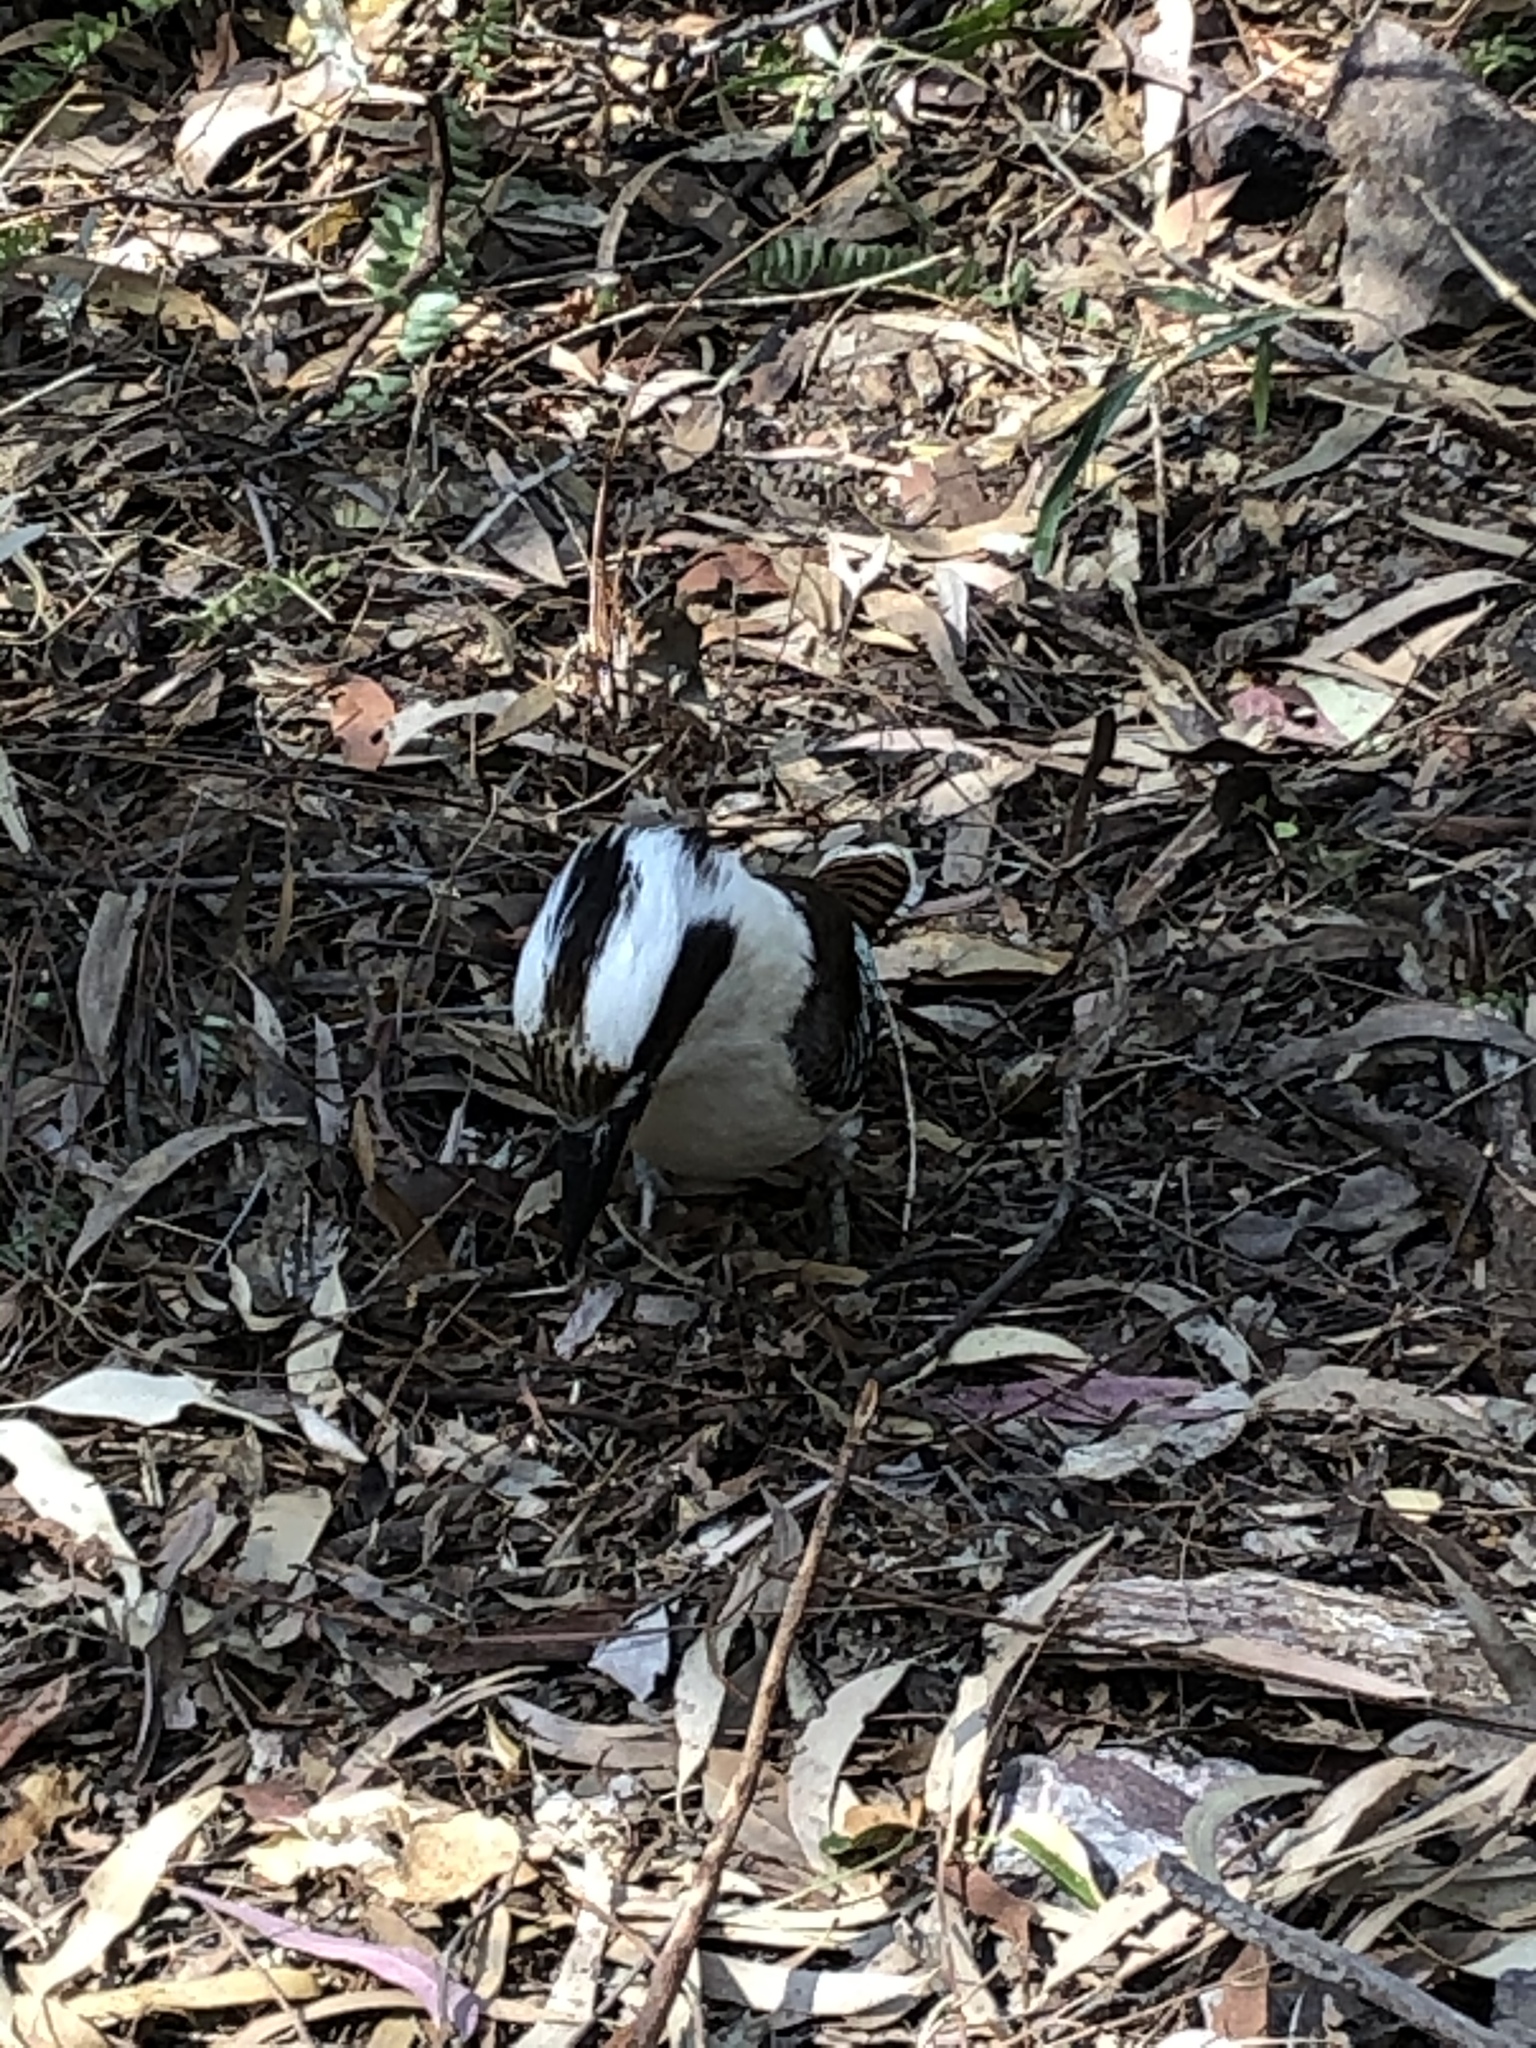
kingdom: Animalia
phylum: Chordata
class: Aves
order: Coraciiformes
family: Alcedinidae
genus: Dacelo
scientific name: Dacelo novaeguineae
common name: Laughing kookaburra
